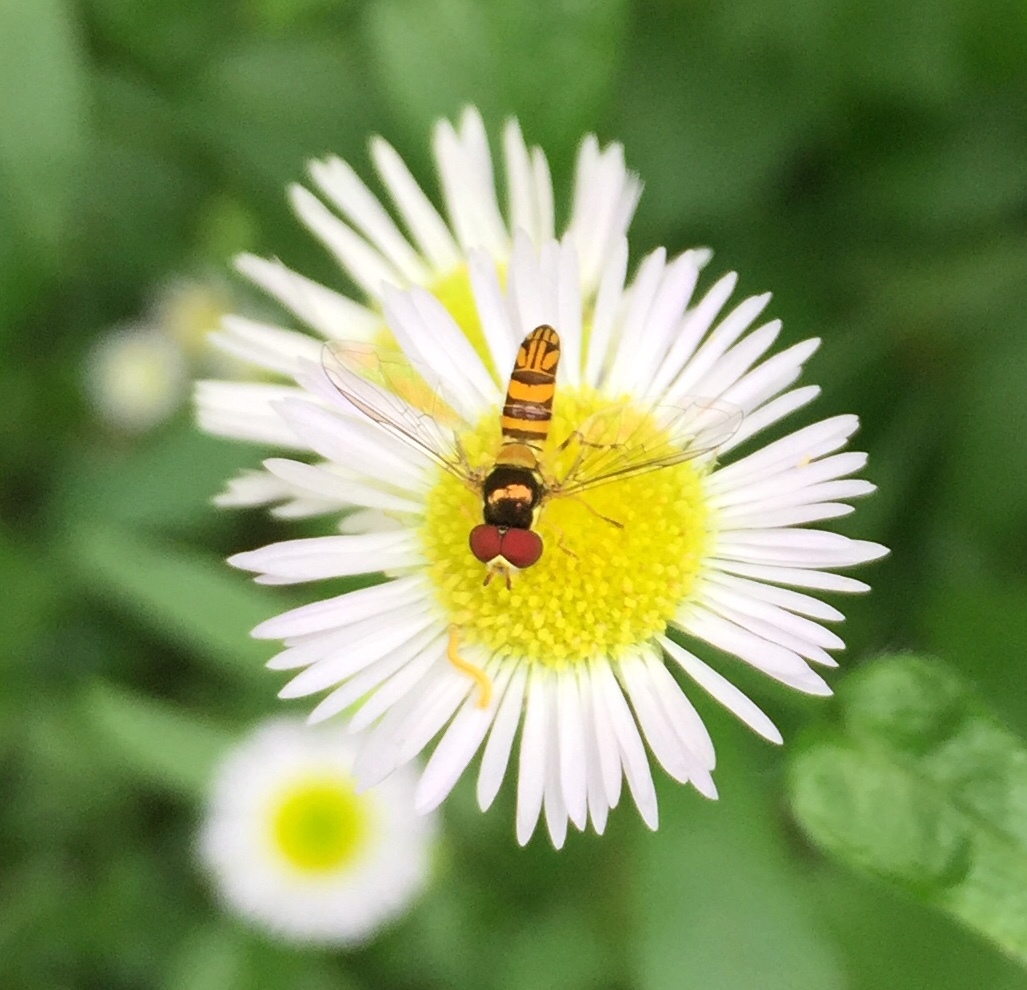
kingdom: Animalia
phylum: Arthropoda
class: Insecta
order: Diptera
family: Syrphidae
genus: Allograpta
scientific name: Allograpta obliqua
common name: Common oblique syrphid
